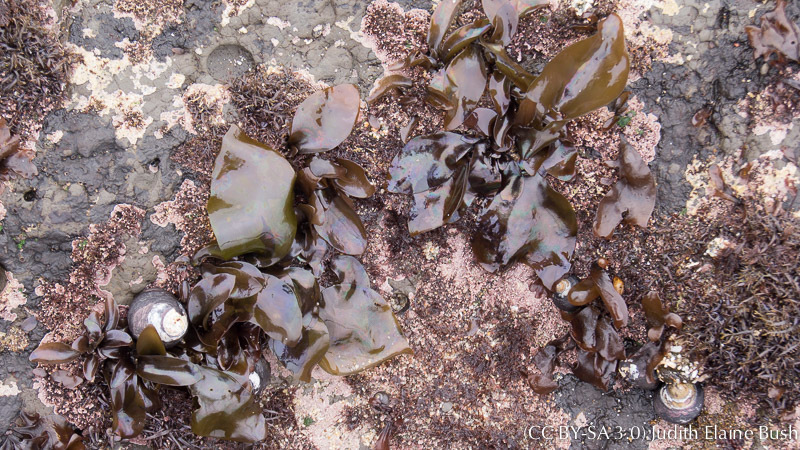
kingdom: Plantae
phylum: Rhodophyta
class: Florideophyceae
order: Gigartinales
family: Gigartinaceae
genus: Mazzaella
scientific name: Mazzaella splendens
